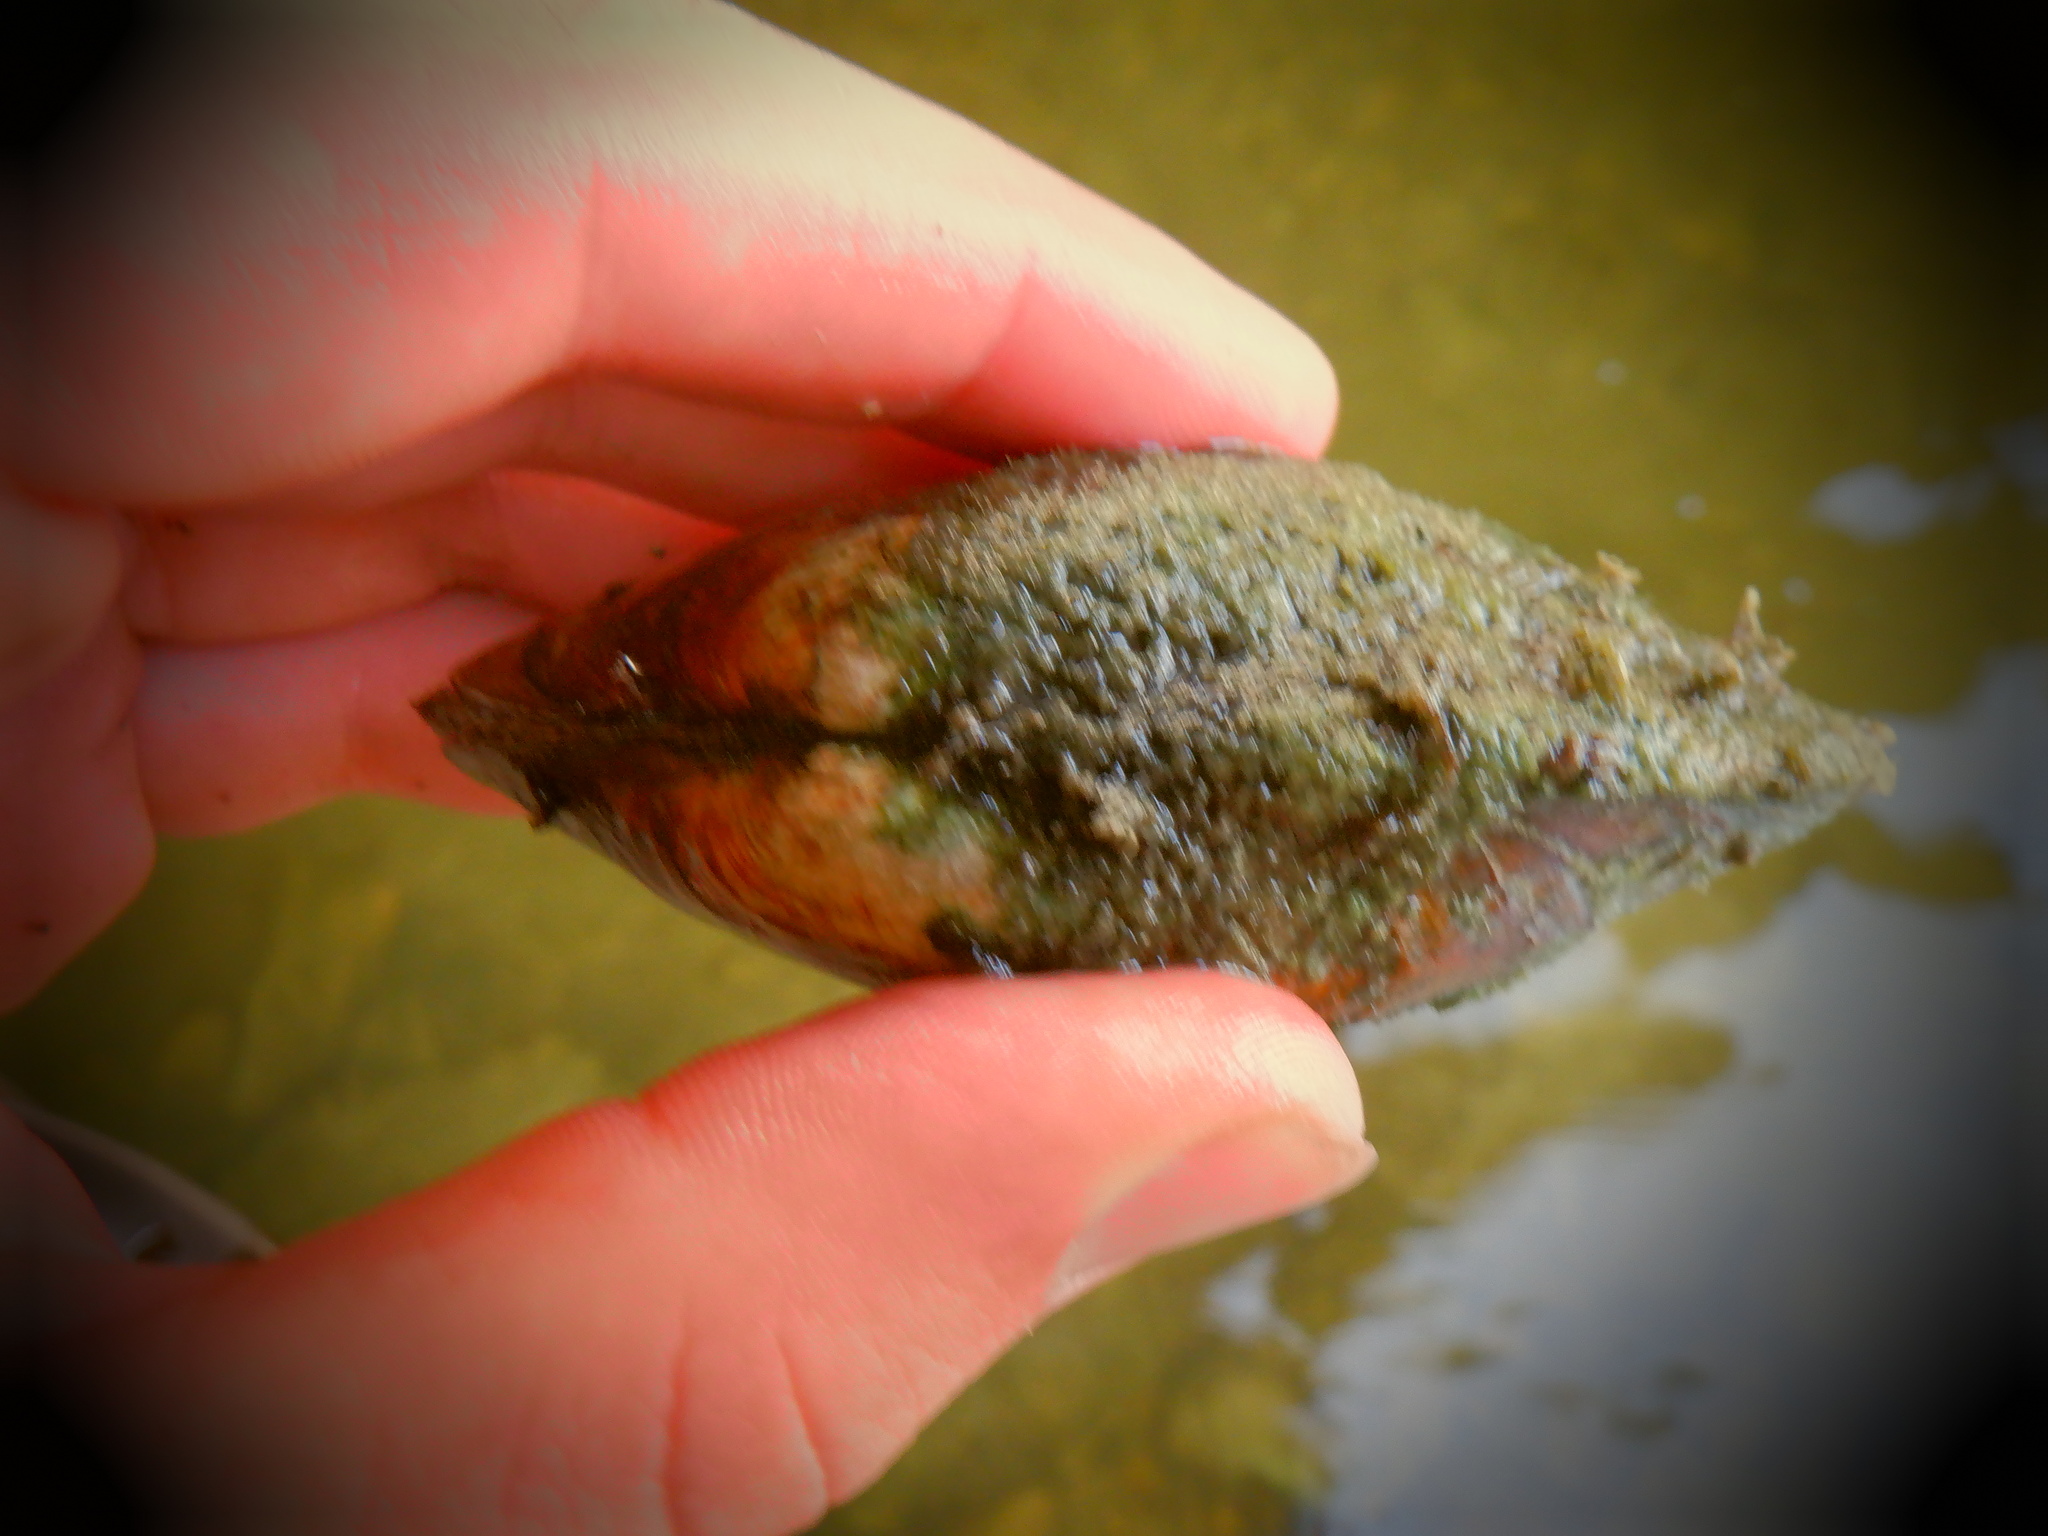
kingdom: Animalia
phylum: Mollusca
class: Bivalvia
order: Unionida
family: Unionidae
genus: Lampsilis
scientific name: Lampsilis siliquoidea
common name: Fatmucket
